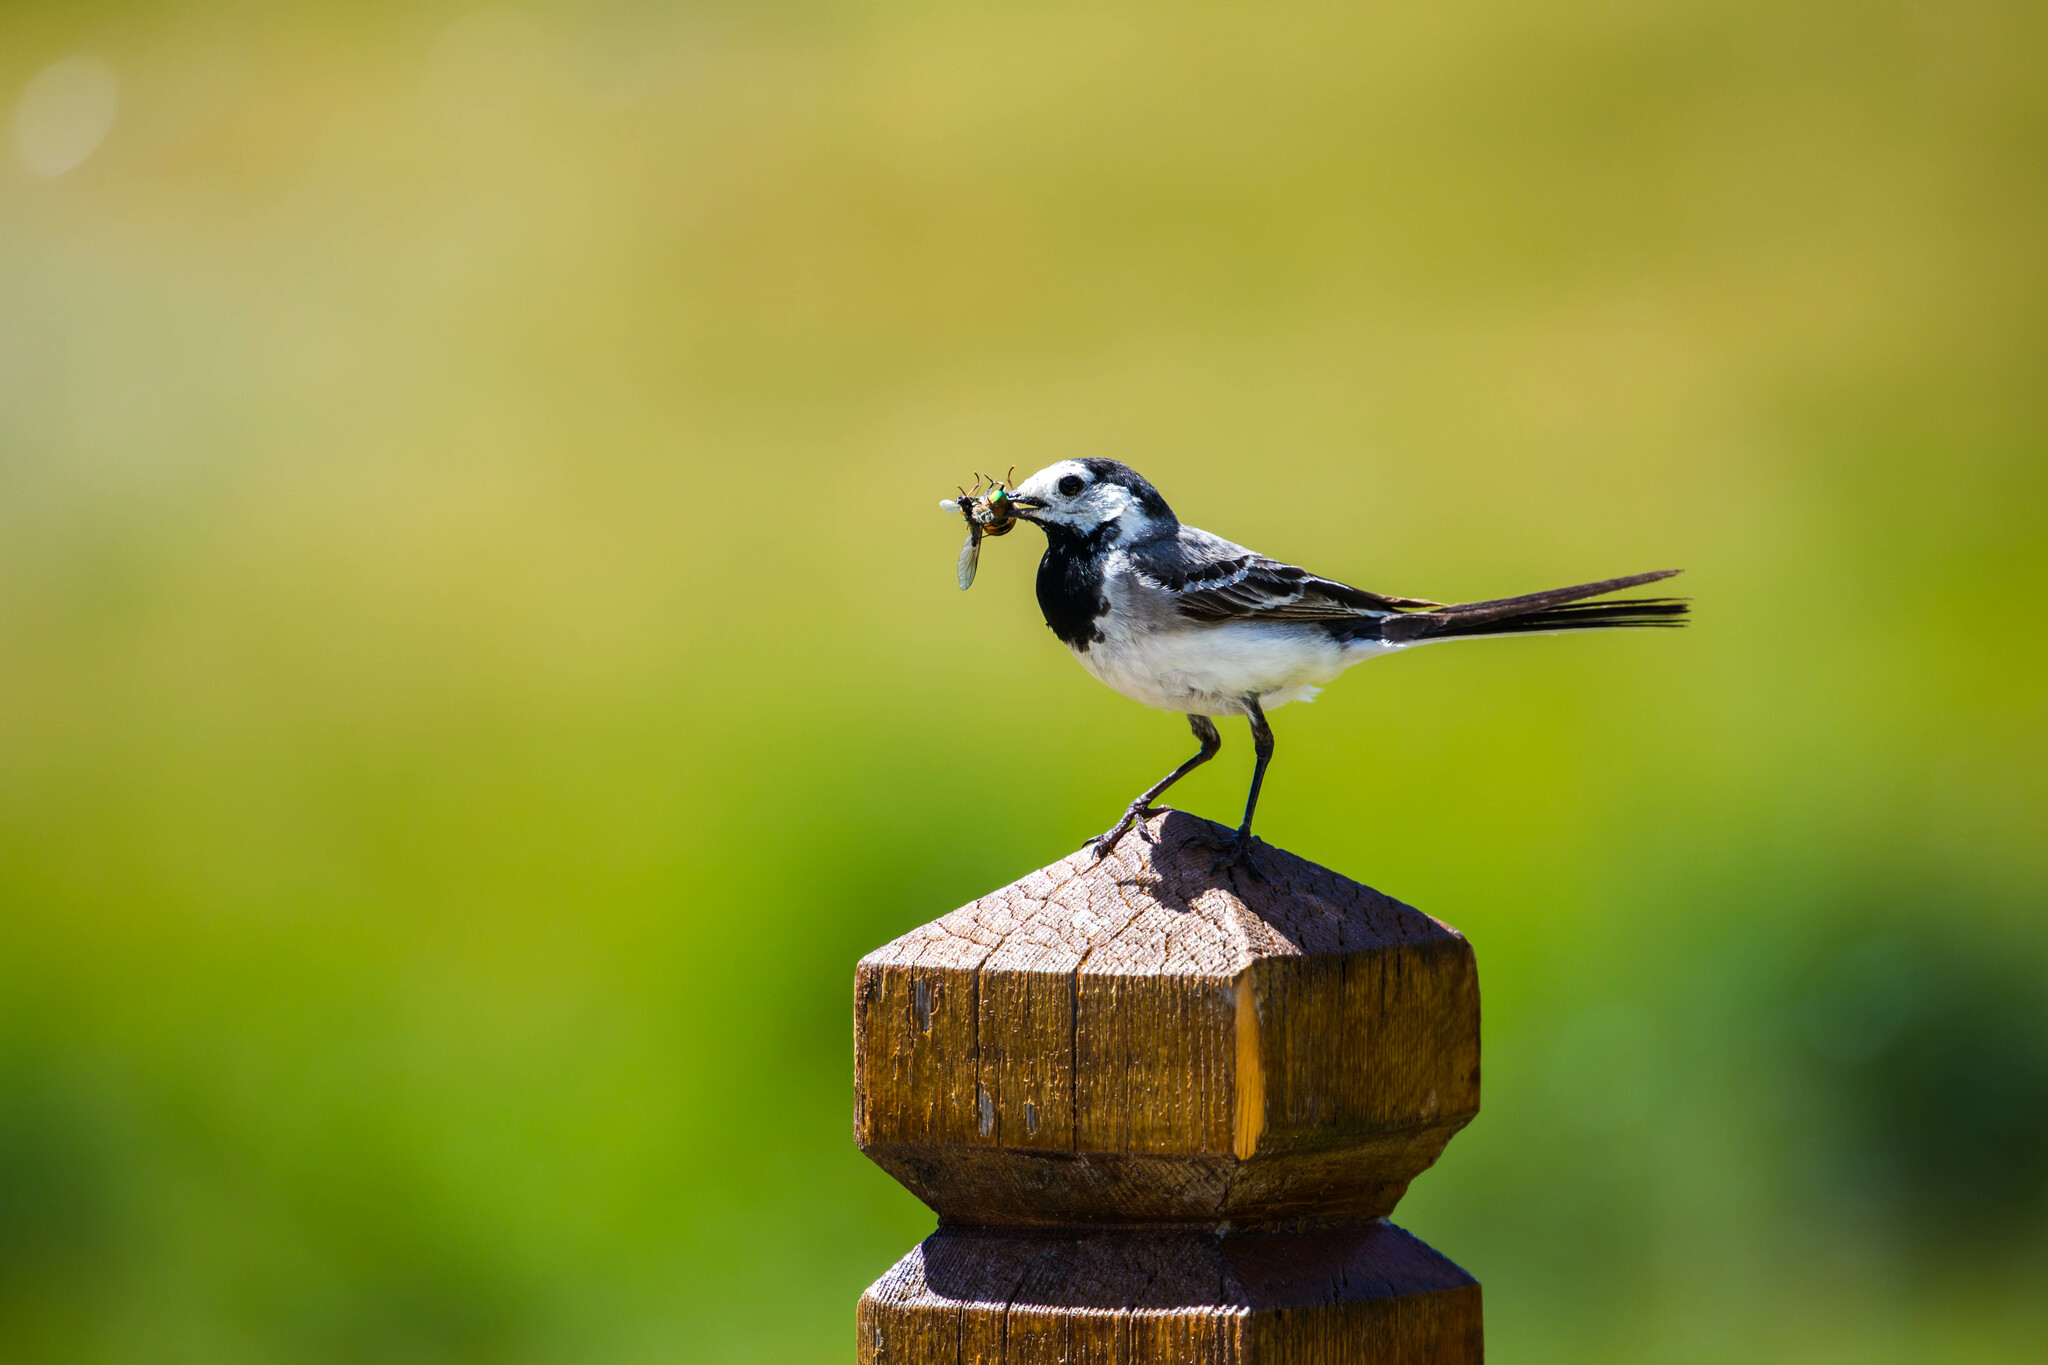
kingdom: Animalia
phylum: Chordata
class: Aves
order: Passeriformes
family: Motacillidae
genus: Motacilla
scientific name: Motacilla alba
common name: White wagtail
